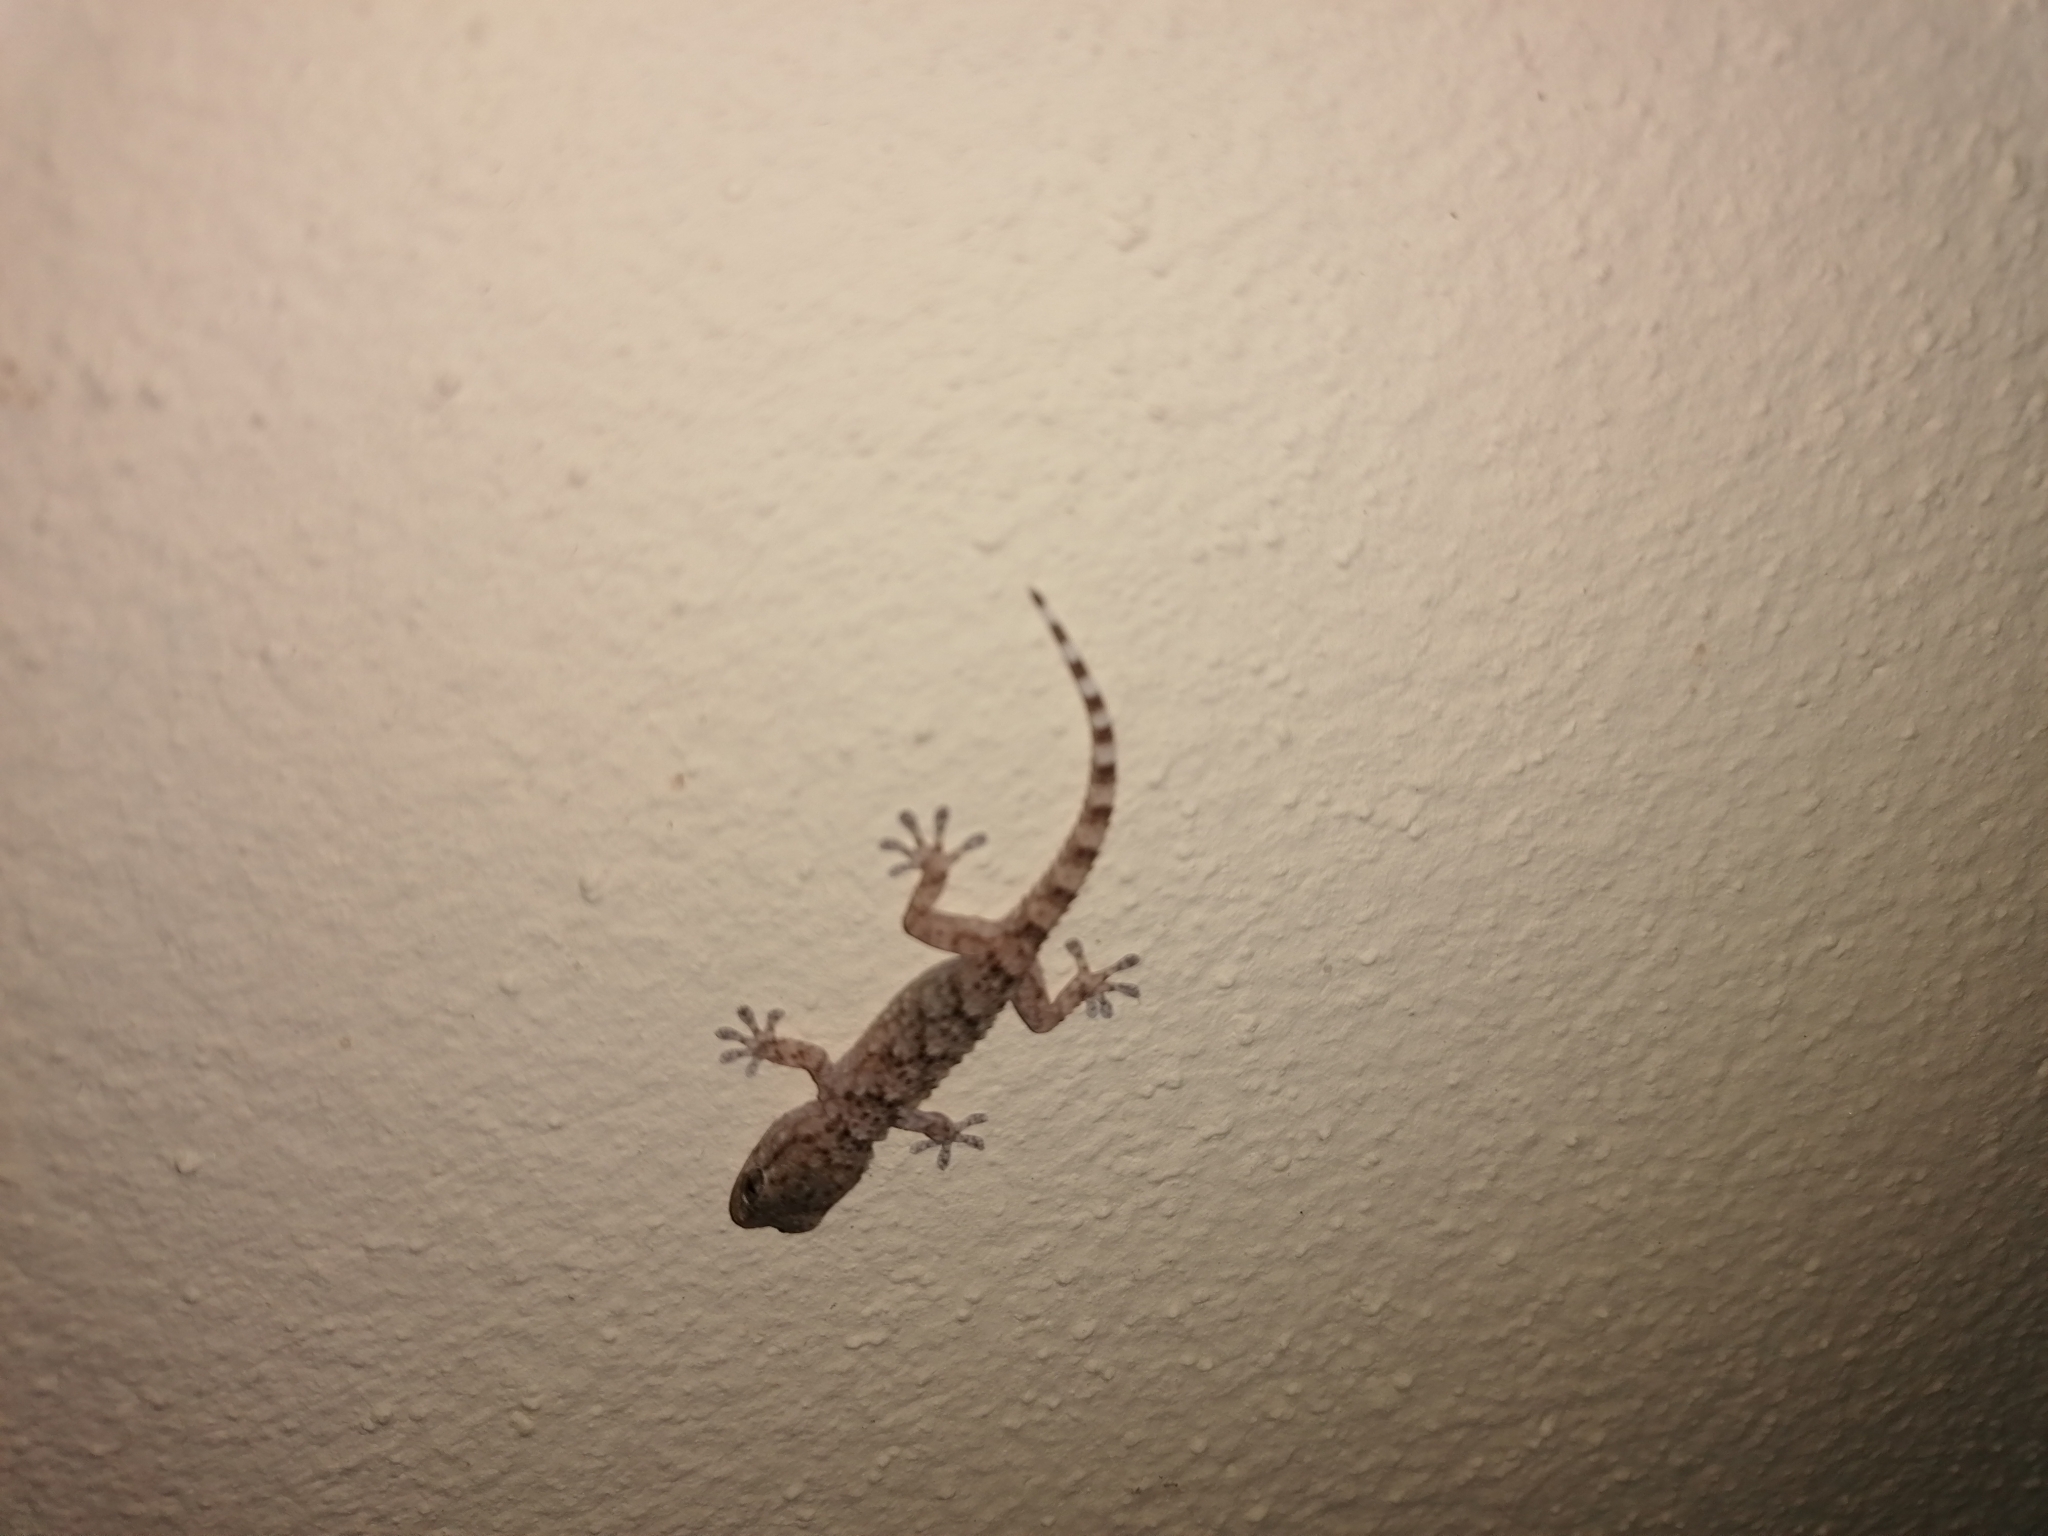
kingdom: Animalia
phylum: Chordata
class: Squamata
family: Phyllodactylidae
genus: Tarentola
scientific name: Tarentola mauritanica
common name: Moorish gecko
